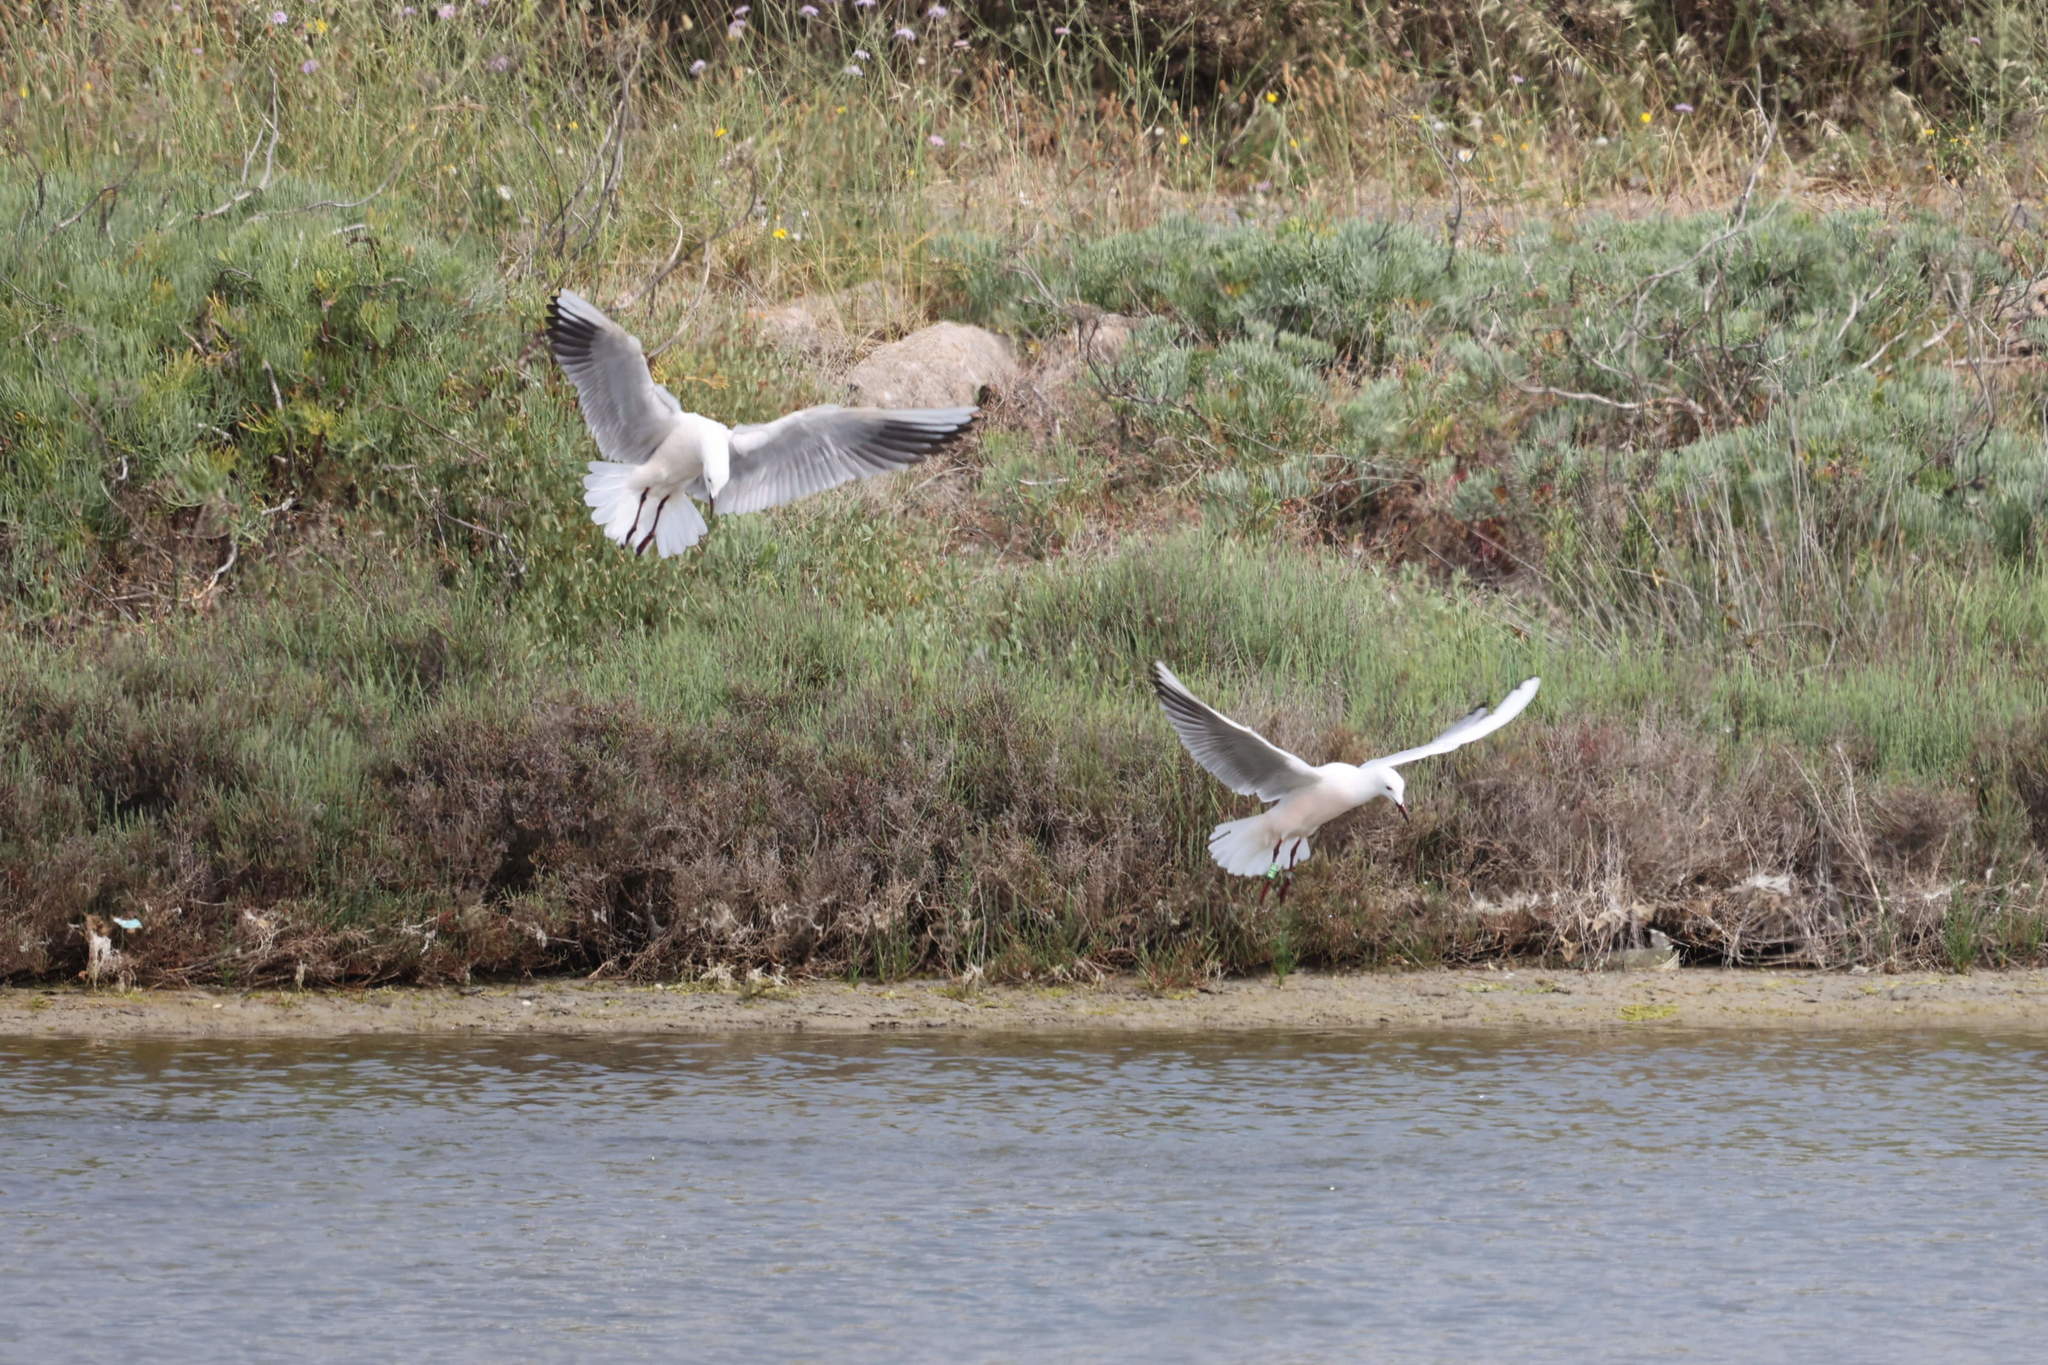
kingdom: Animalia
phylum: Chordata
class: Aves
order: Charadriiformes
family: Laridae
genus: Chroicocephalus
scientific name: Chroicocephalus genei
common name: Slender-billed gull
